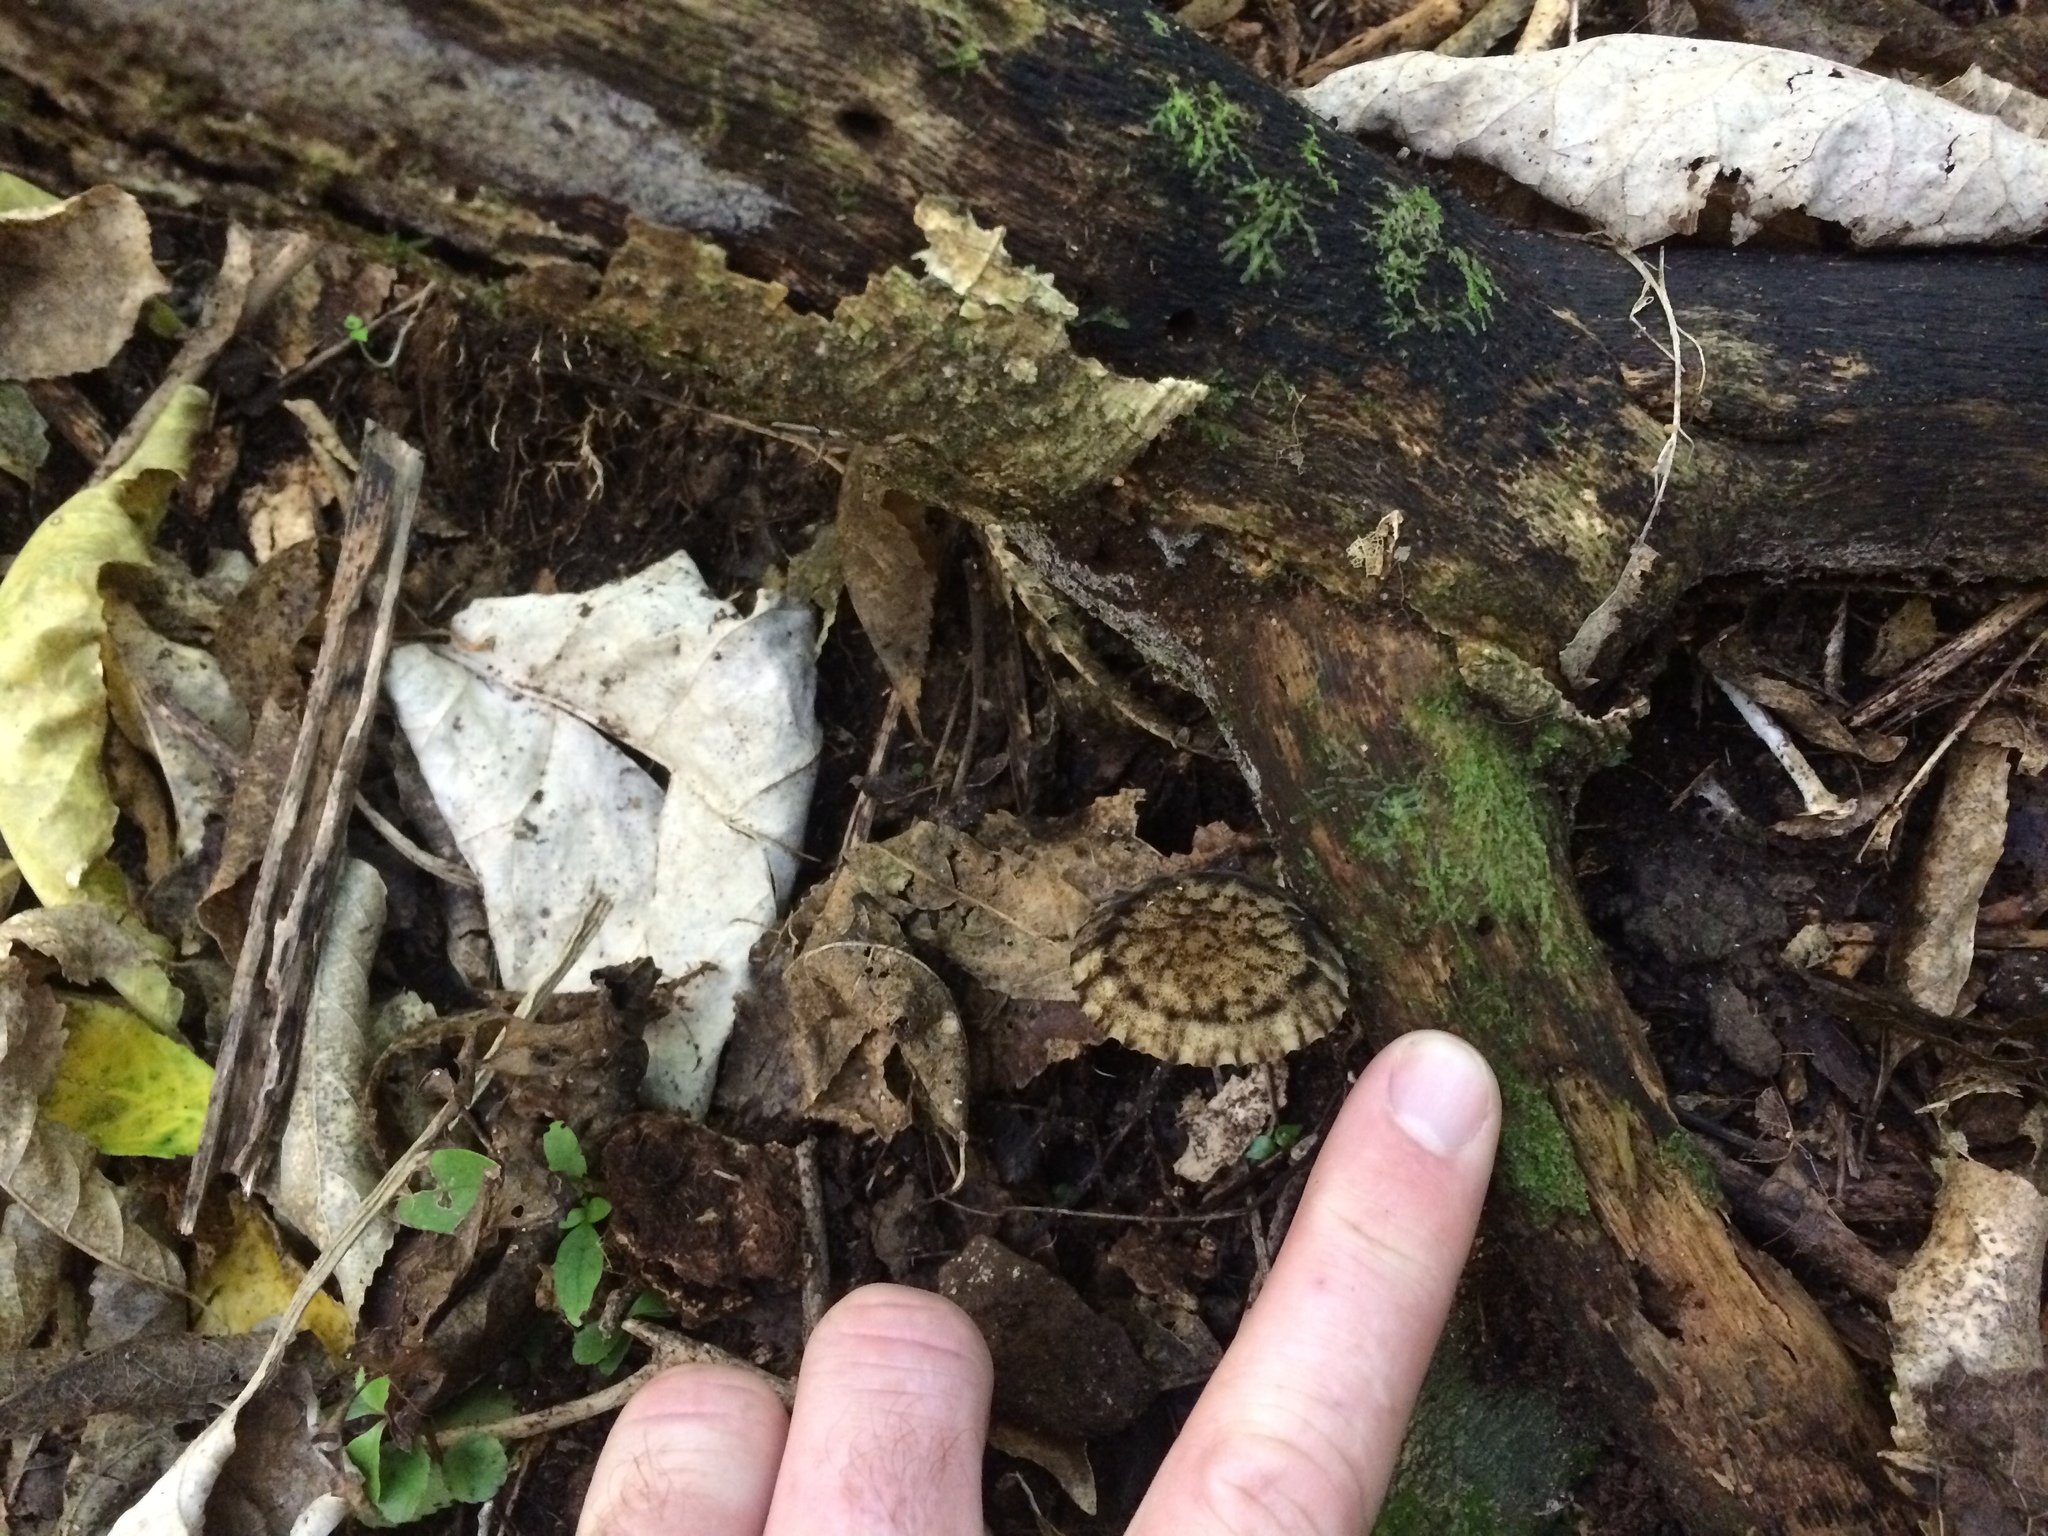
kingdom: Fungi
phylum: Basidiomycota
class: Agaricomycetes
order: Agaricales
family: Pluteaceae
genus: Pluteus
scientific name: Pluteus readiarum
